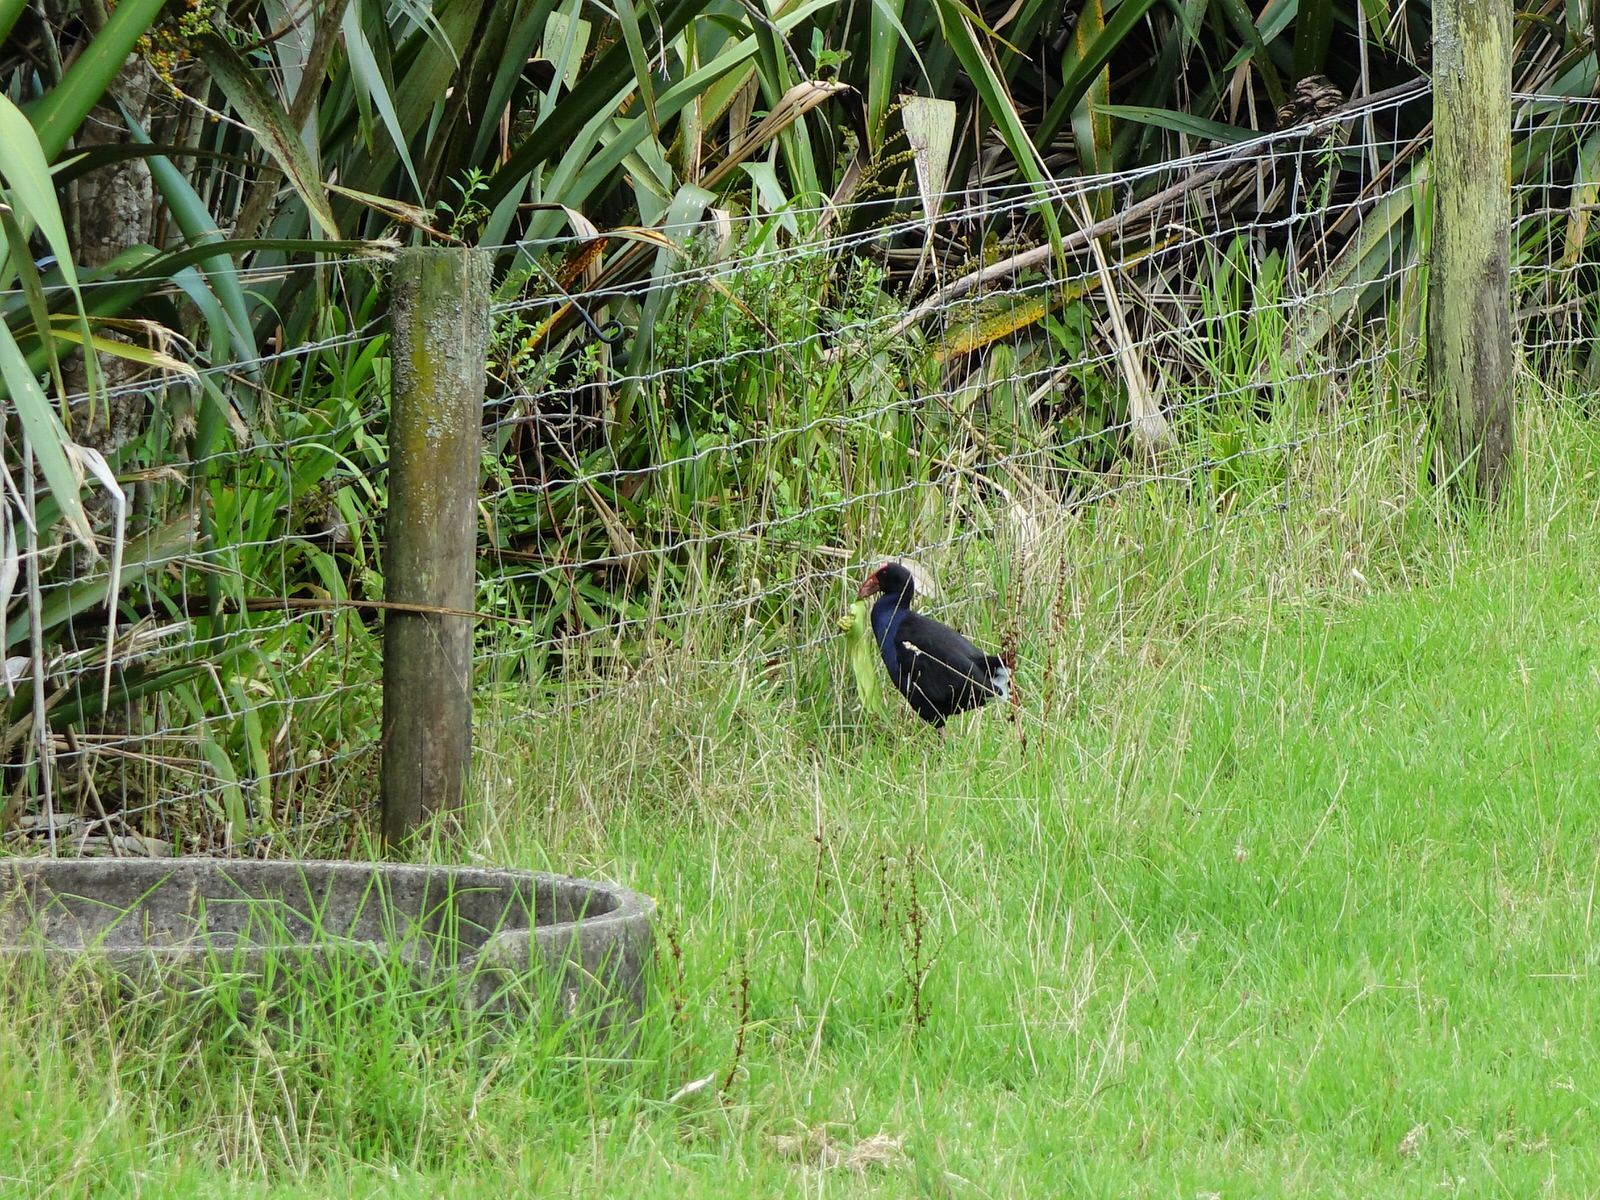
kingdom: Animalia
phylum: Chordata
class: Aves
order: Gruiformes
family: Rallidae
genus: Porphyrio
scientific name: Porphyrio melanotus
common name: Australasian swamphen
